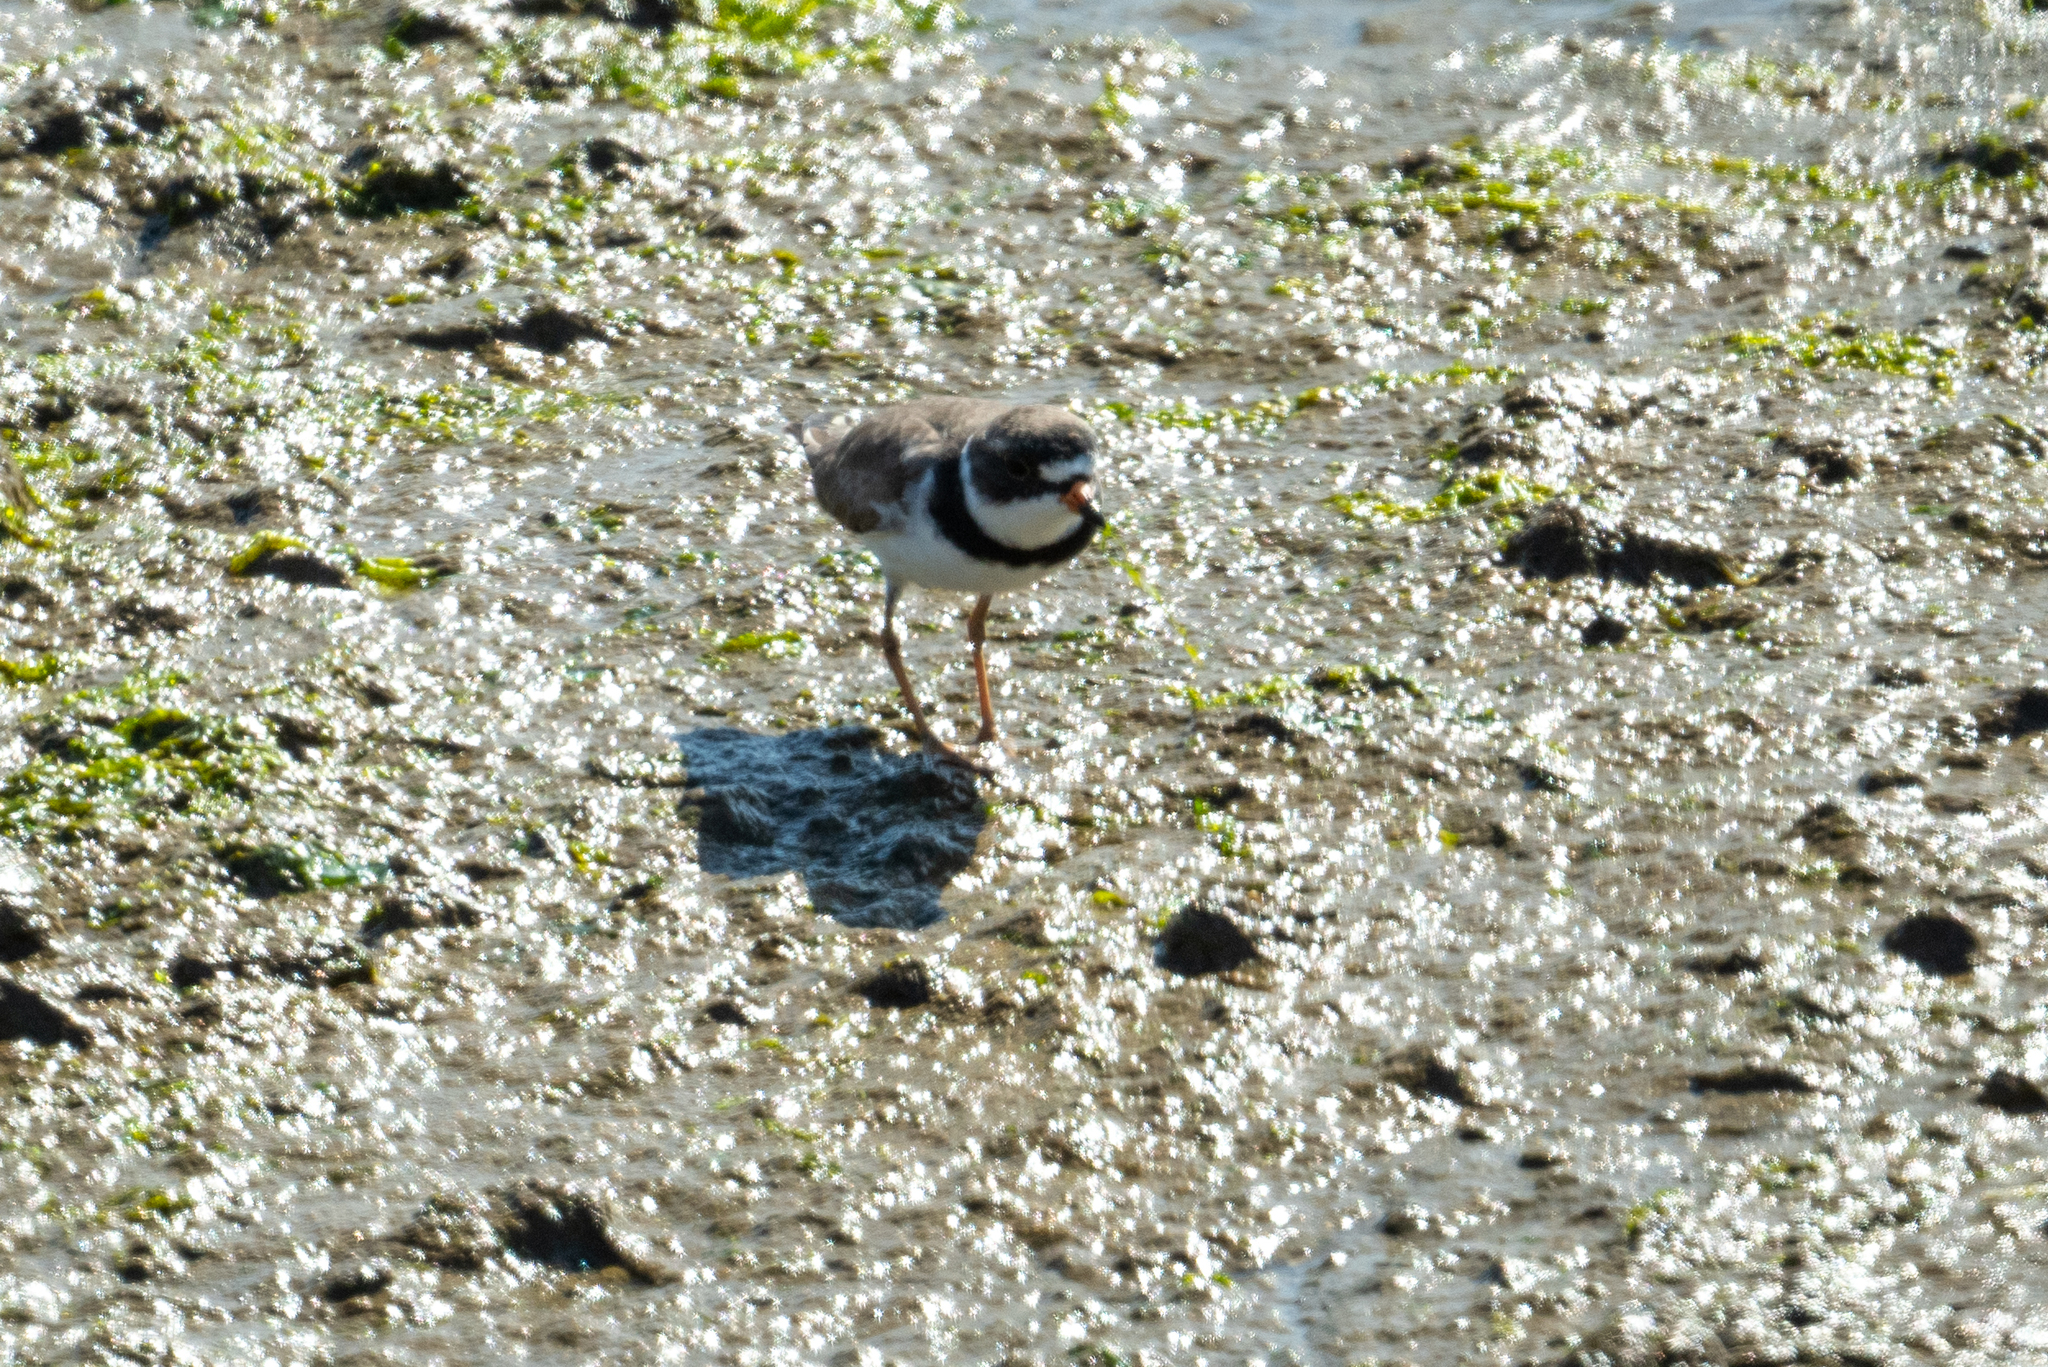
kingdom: Animalia
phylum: Chordata
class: Aves
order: Charadriiformes
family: Charadriidae
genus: Charadrius
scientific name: Charadrius semipalmatus
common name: Semipalmated plover
